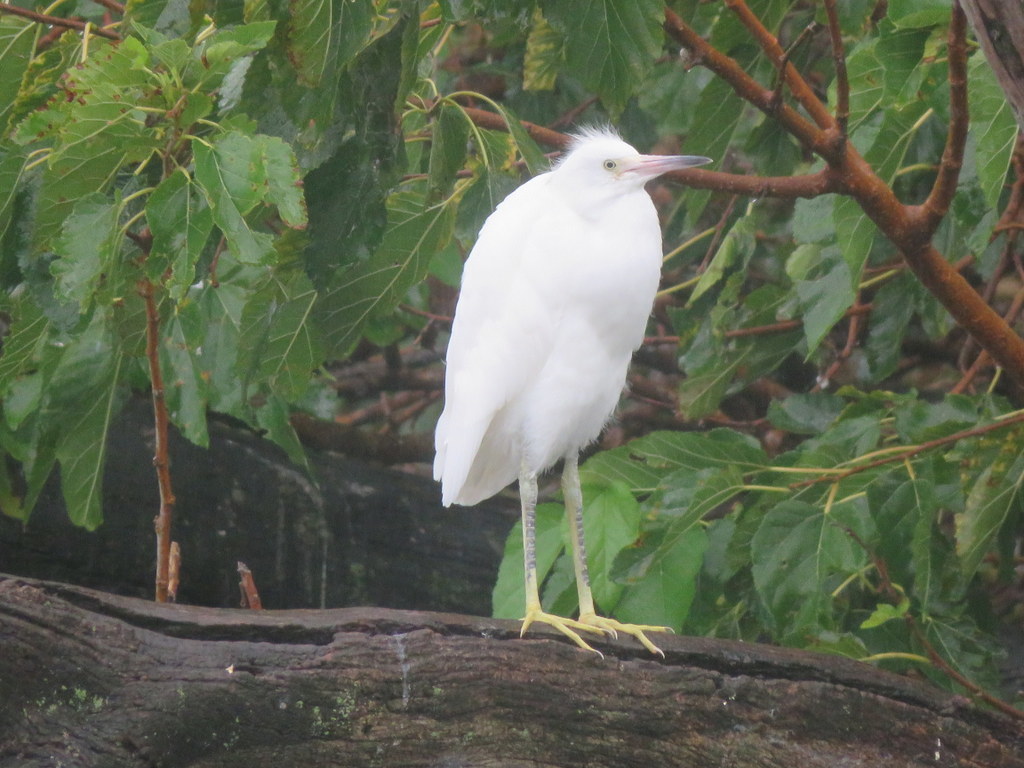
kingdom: Animalia
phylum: Chordata
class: Aves
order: Pelecaniformes
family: Ardeidae
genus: Egretta
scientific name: Egretta thula
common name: Snowy egret
